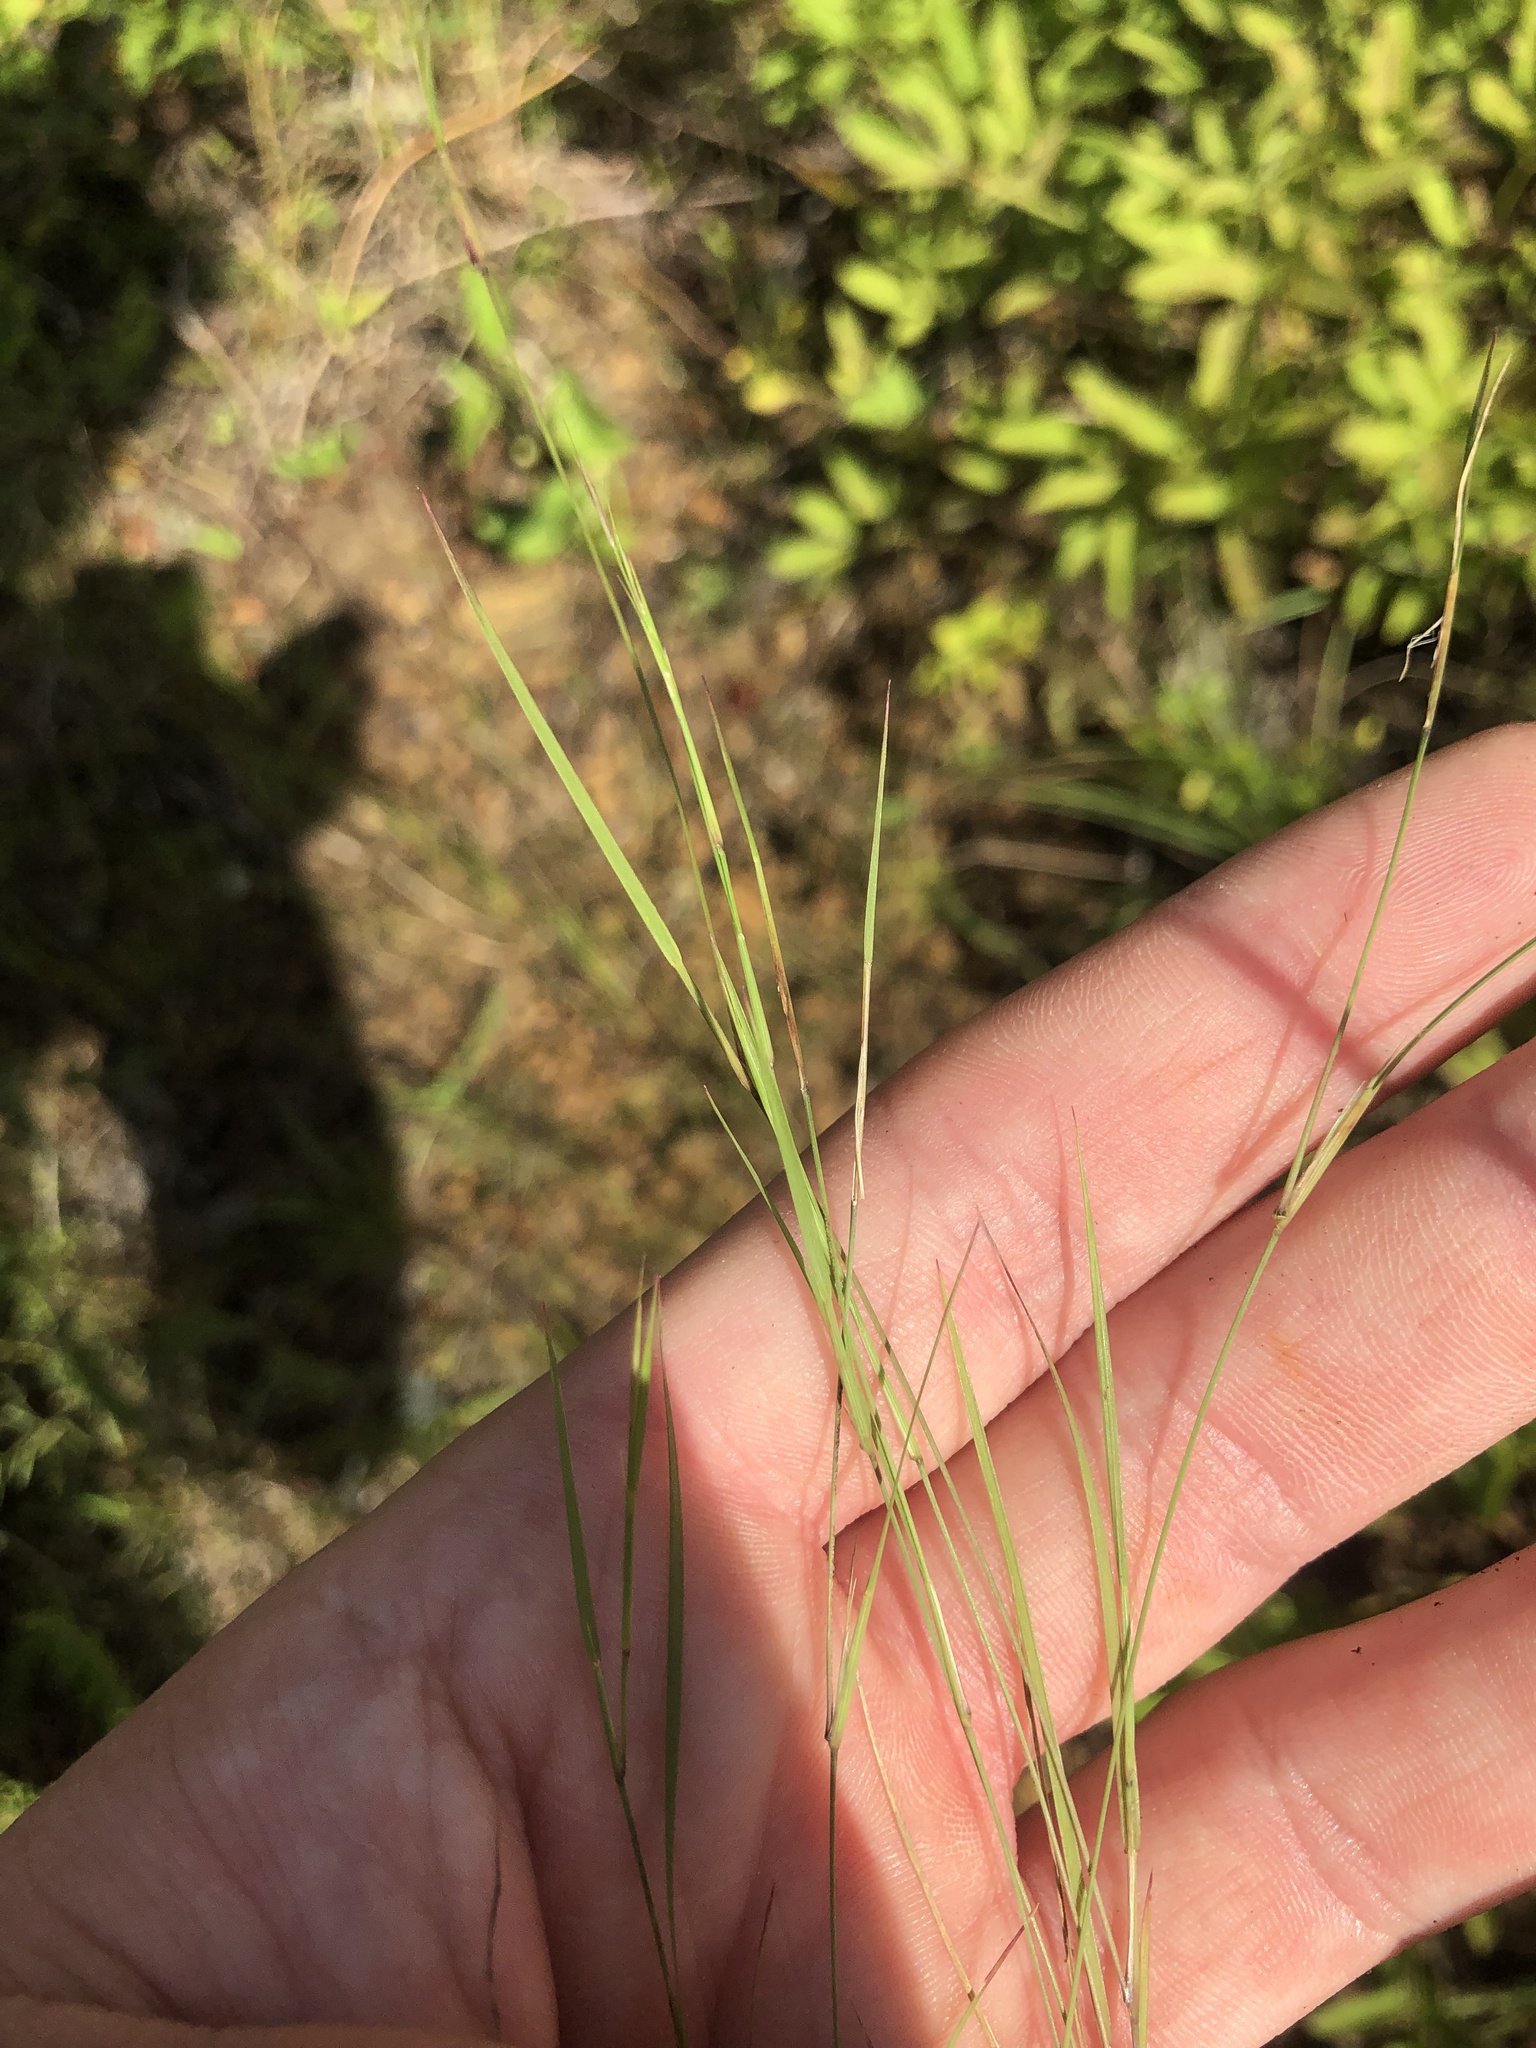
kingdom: Plantae
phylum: Tracheophyta
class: Liliopsida
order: Poales
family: Poaceae
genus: Sporobolus
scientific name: Sporobolus neglectus
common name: Annual dropseed
